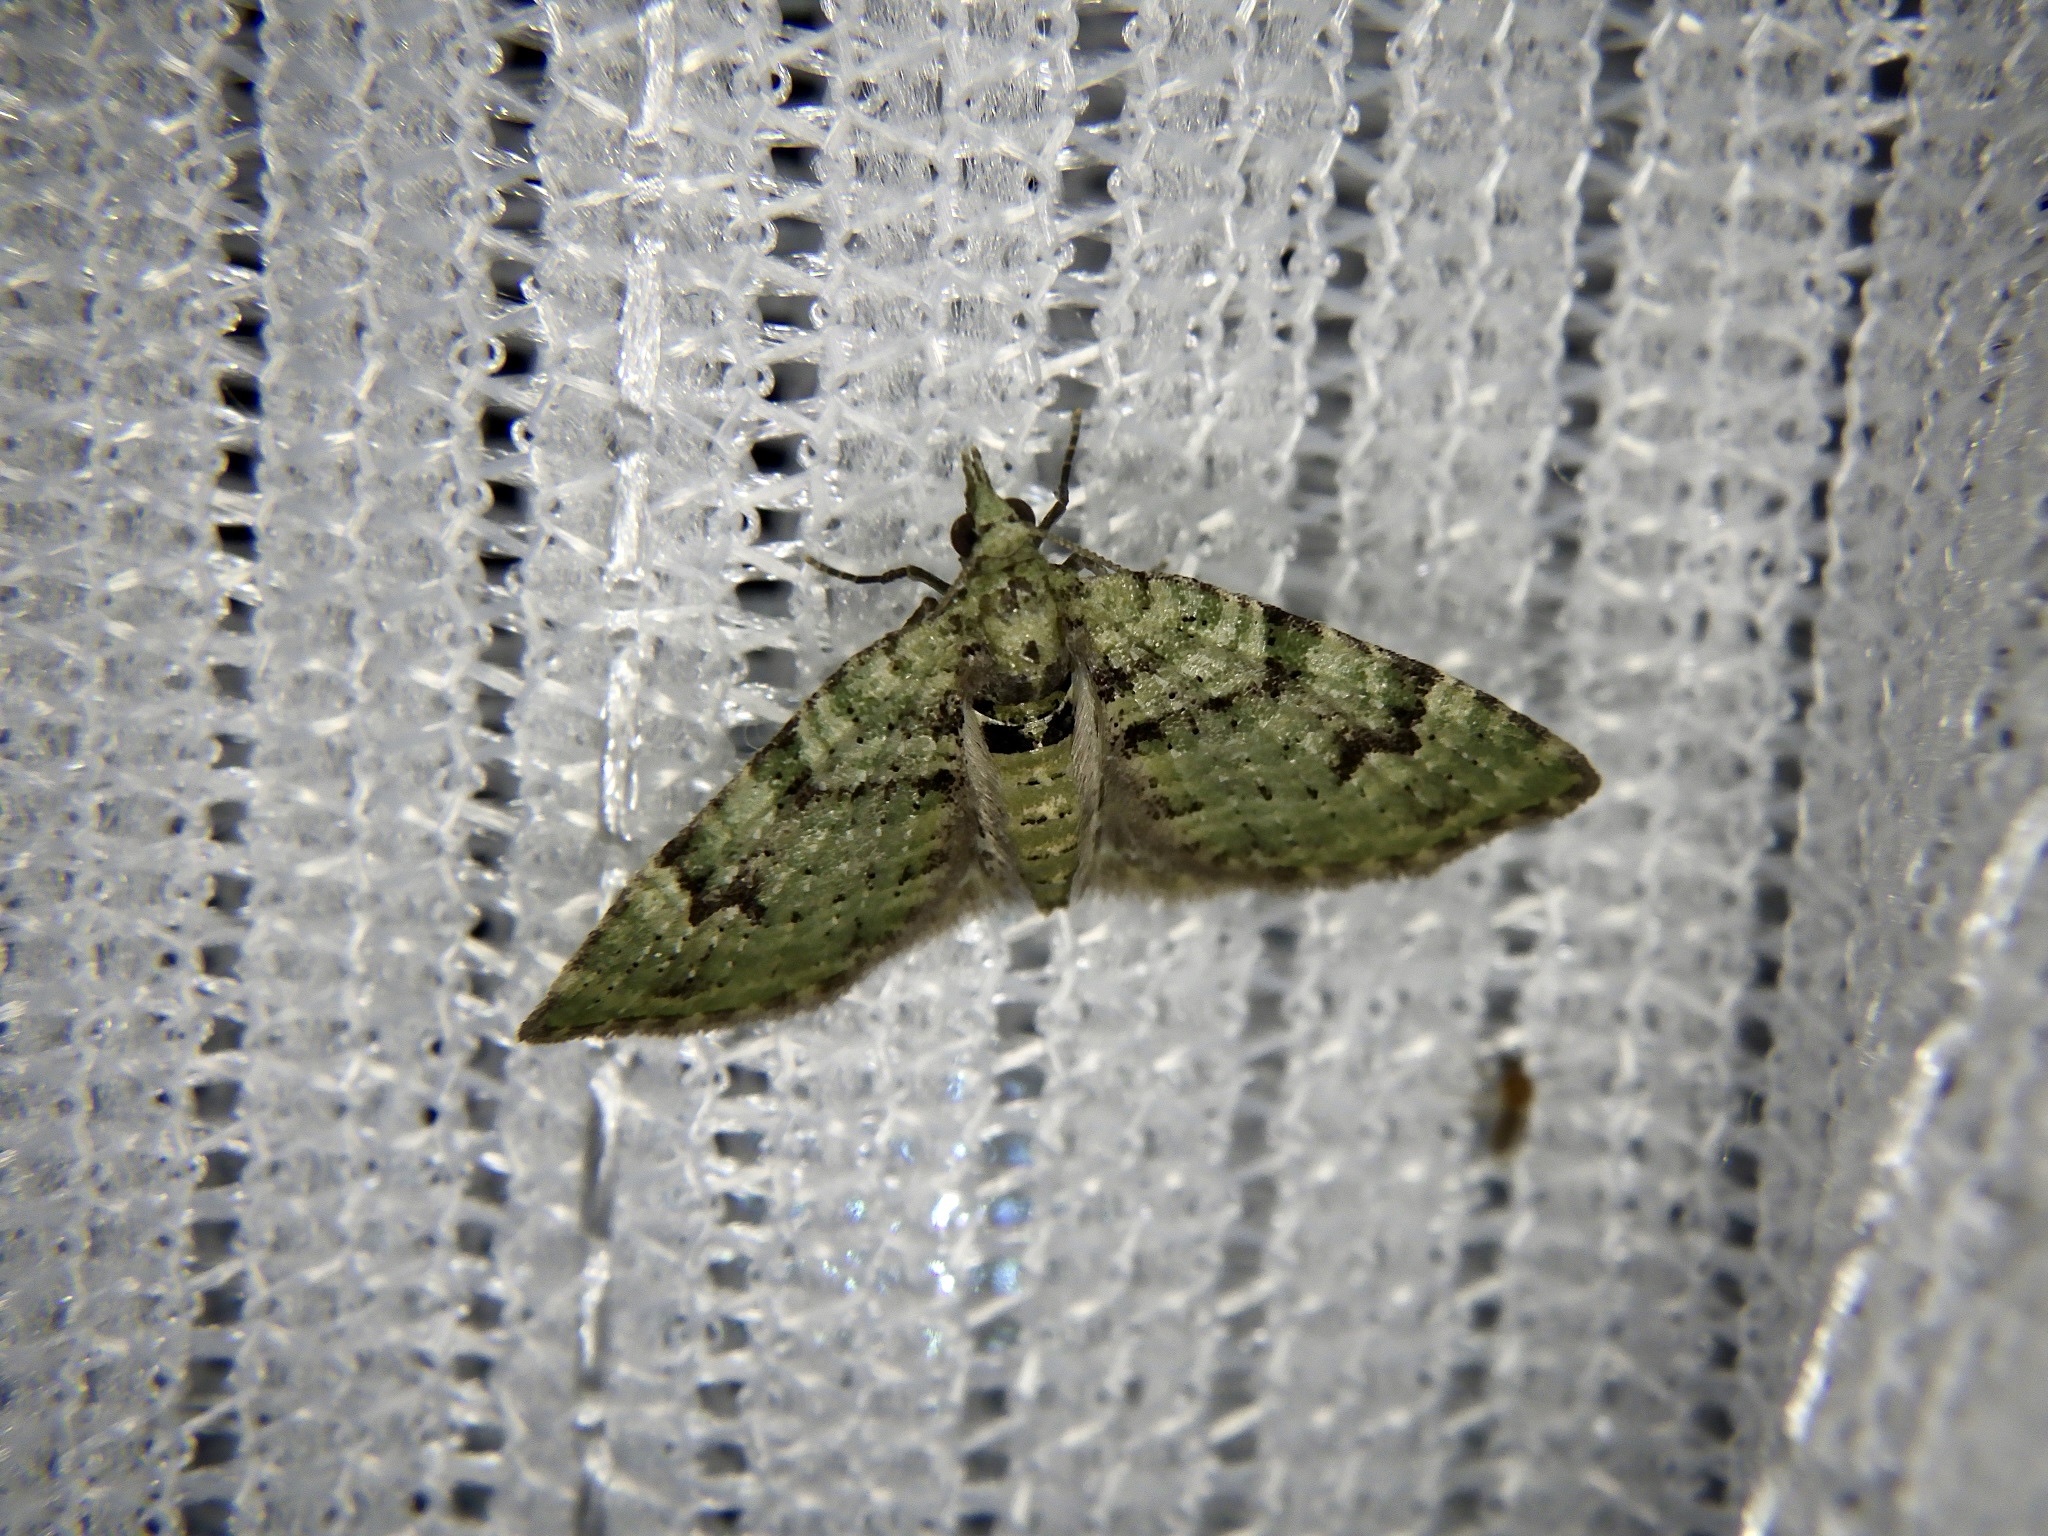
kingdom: Animalia
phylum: Arthropoda
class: Insecta
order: Lepidoptera
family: Geometridae
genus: Chloroclystis
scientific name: Chloroclystis v-ata
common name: V-pug
